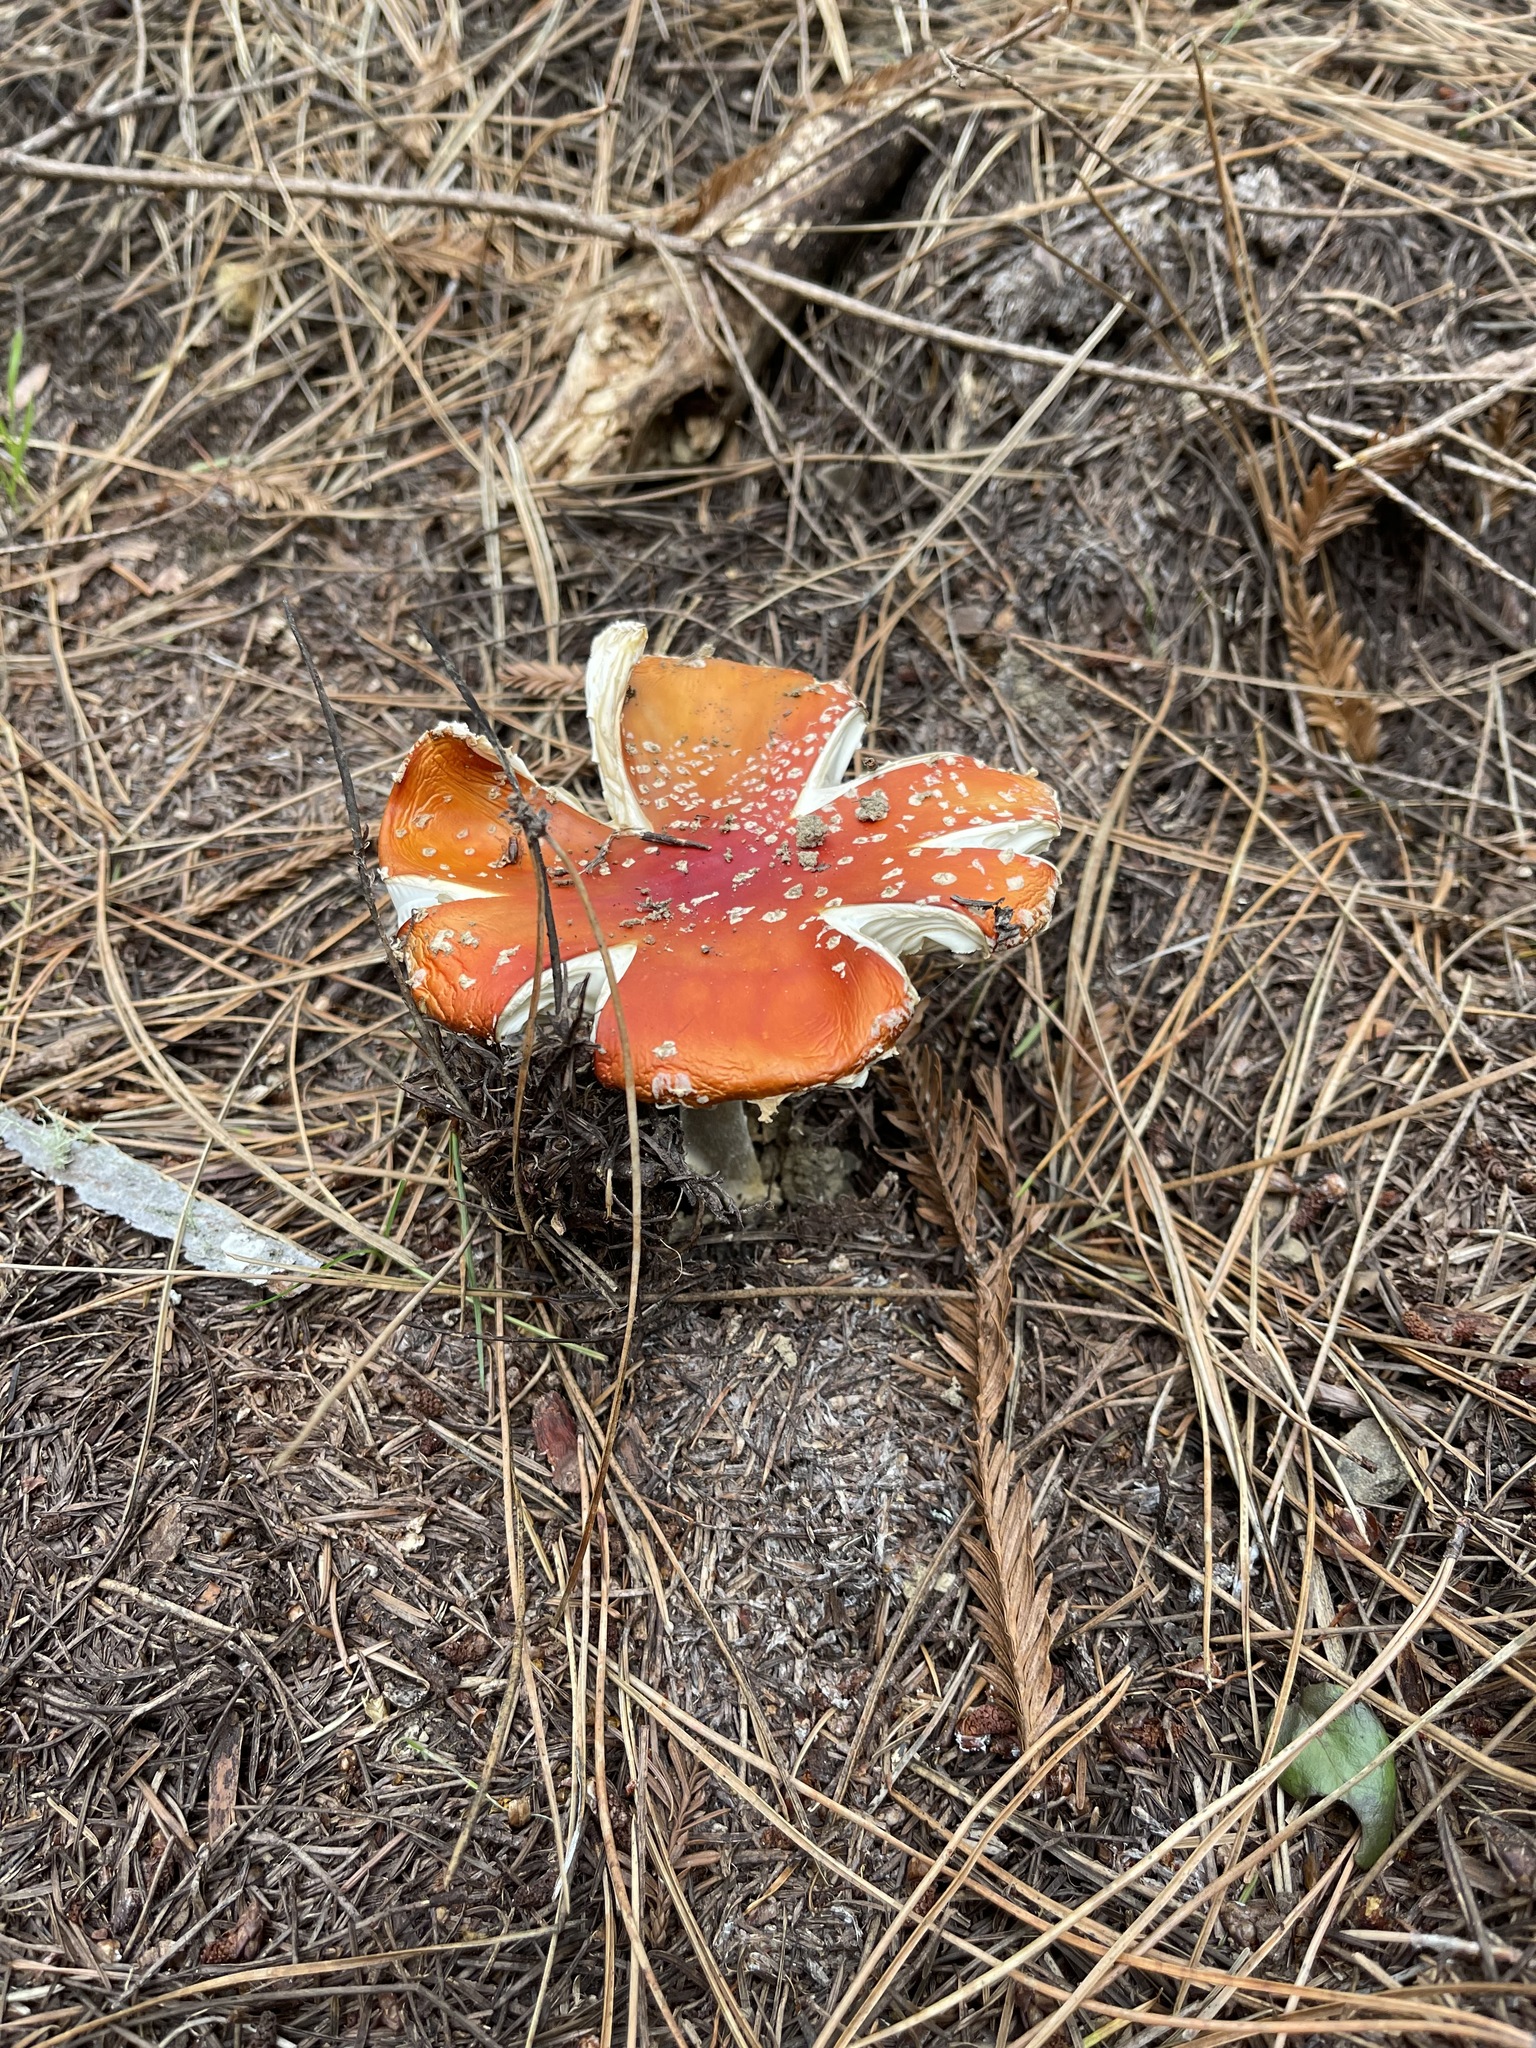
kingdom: Fungi
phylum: Basidiomycota
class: Agaricomycetes
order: Agaricales
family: Amanitaceae
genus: Amanita
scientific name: Amanita muscaria
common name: Fly agaric
